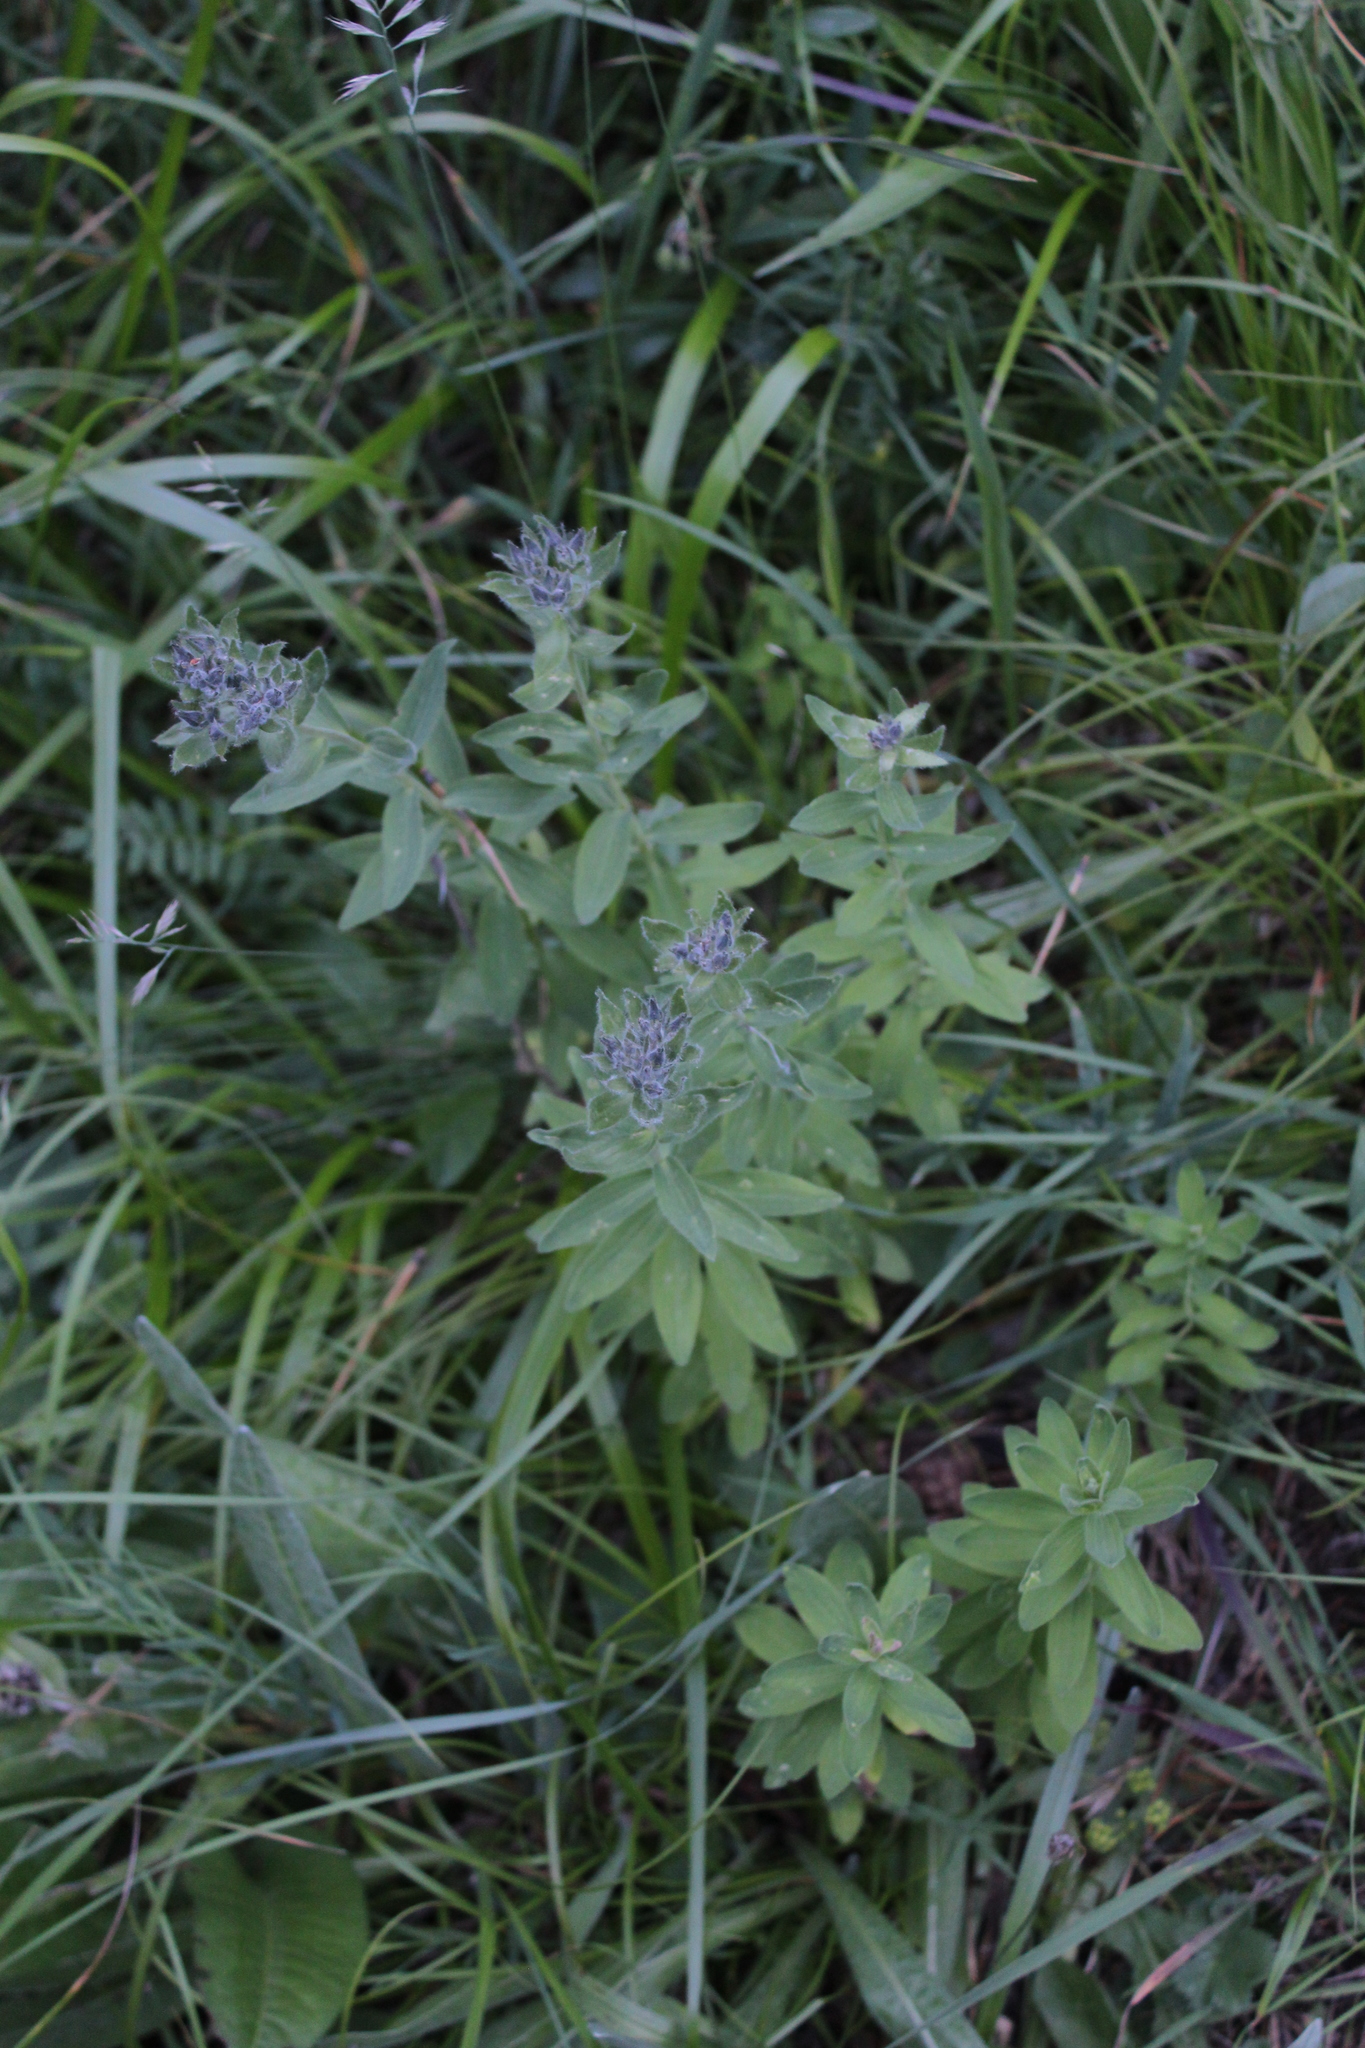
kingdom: Plantae
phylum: Tracheophyta
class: Magnoliopsida
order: Malpighiales
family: Linaceae
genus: Linum
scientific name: Linum hypericifolium
